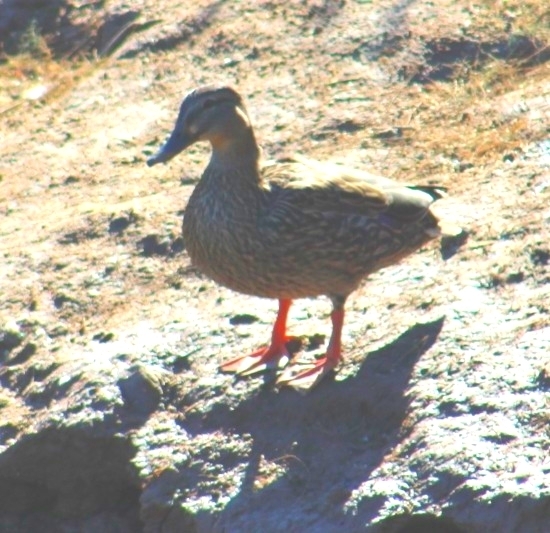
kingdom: Animalia
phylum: Chordata
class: Aves
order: Anseriformes
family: Anatidae
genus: Anas
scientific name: Anas platyrhynchos
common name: Mallard
